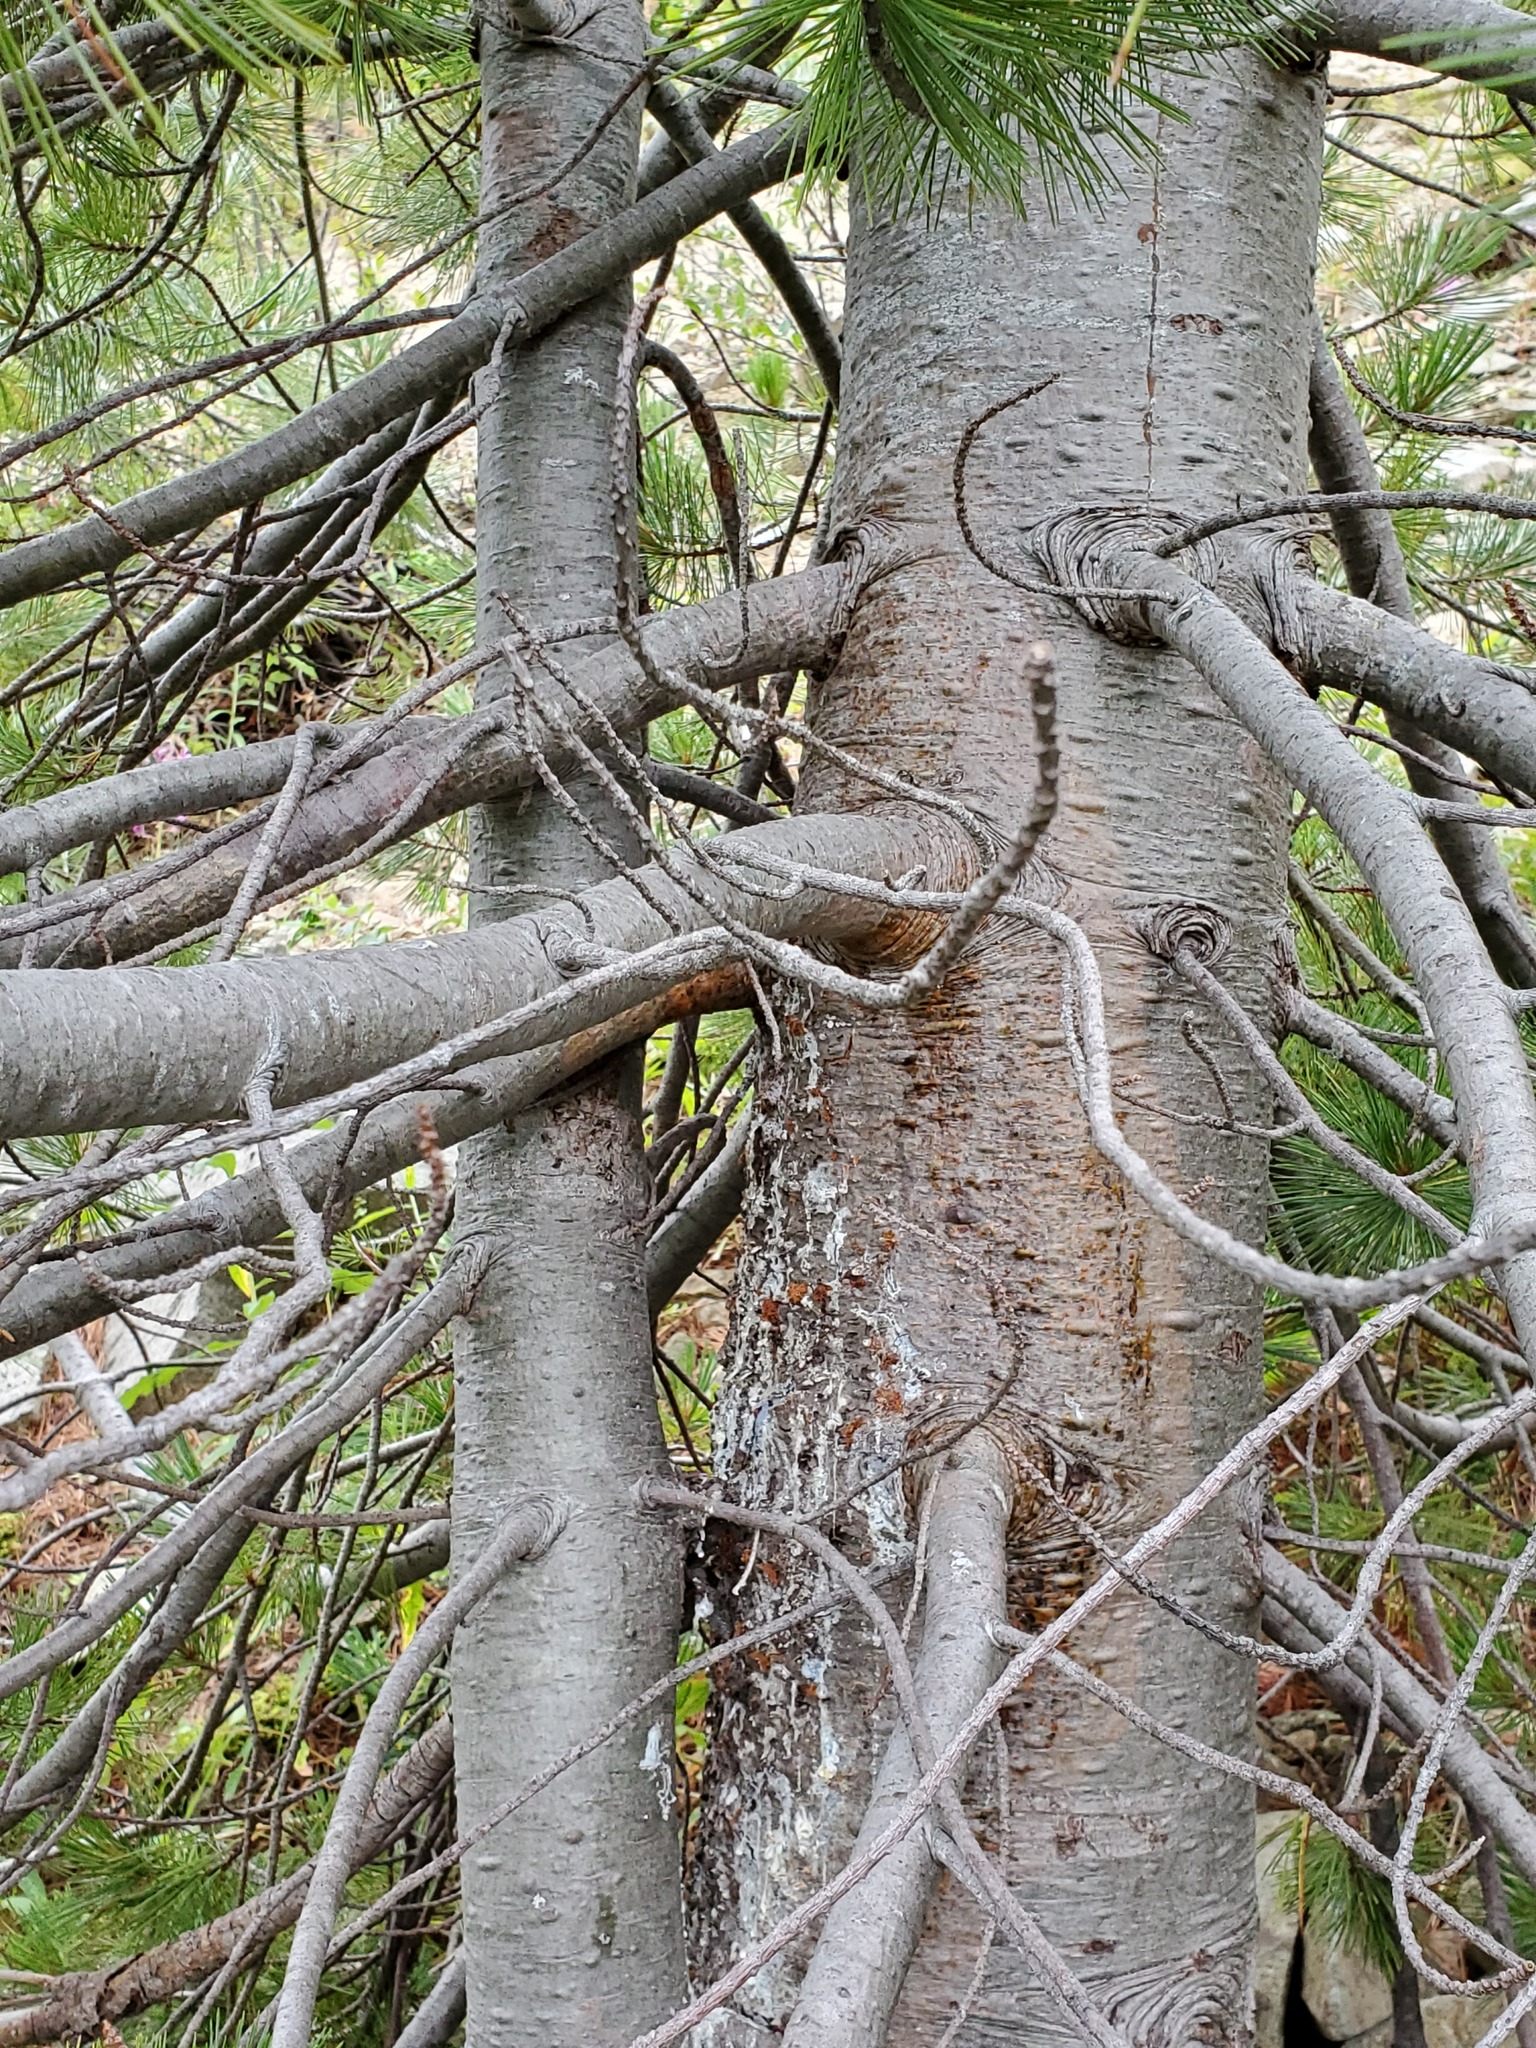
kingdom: Plantae
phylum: Tracheophyta
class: Pinopsida
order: Pinales
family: Pinaceae
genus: Pinus
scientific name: Pinus monticola
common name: Western white pine
